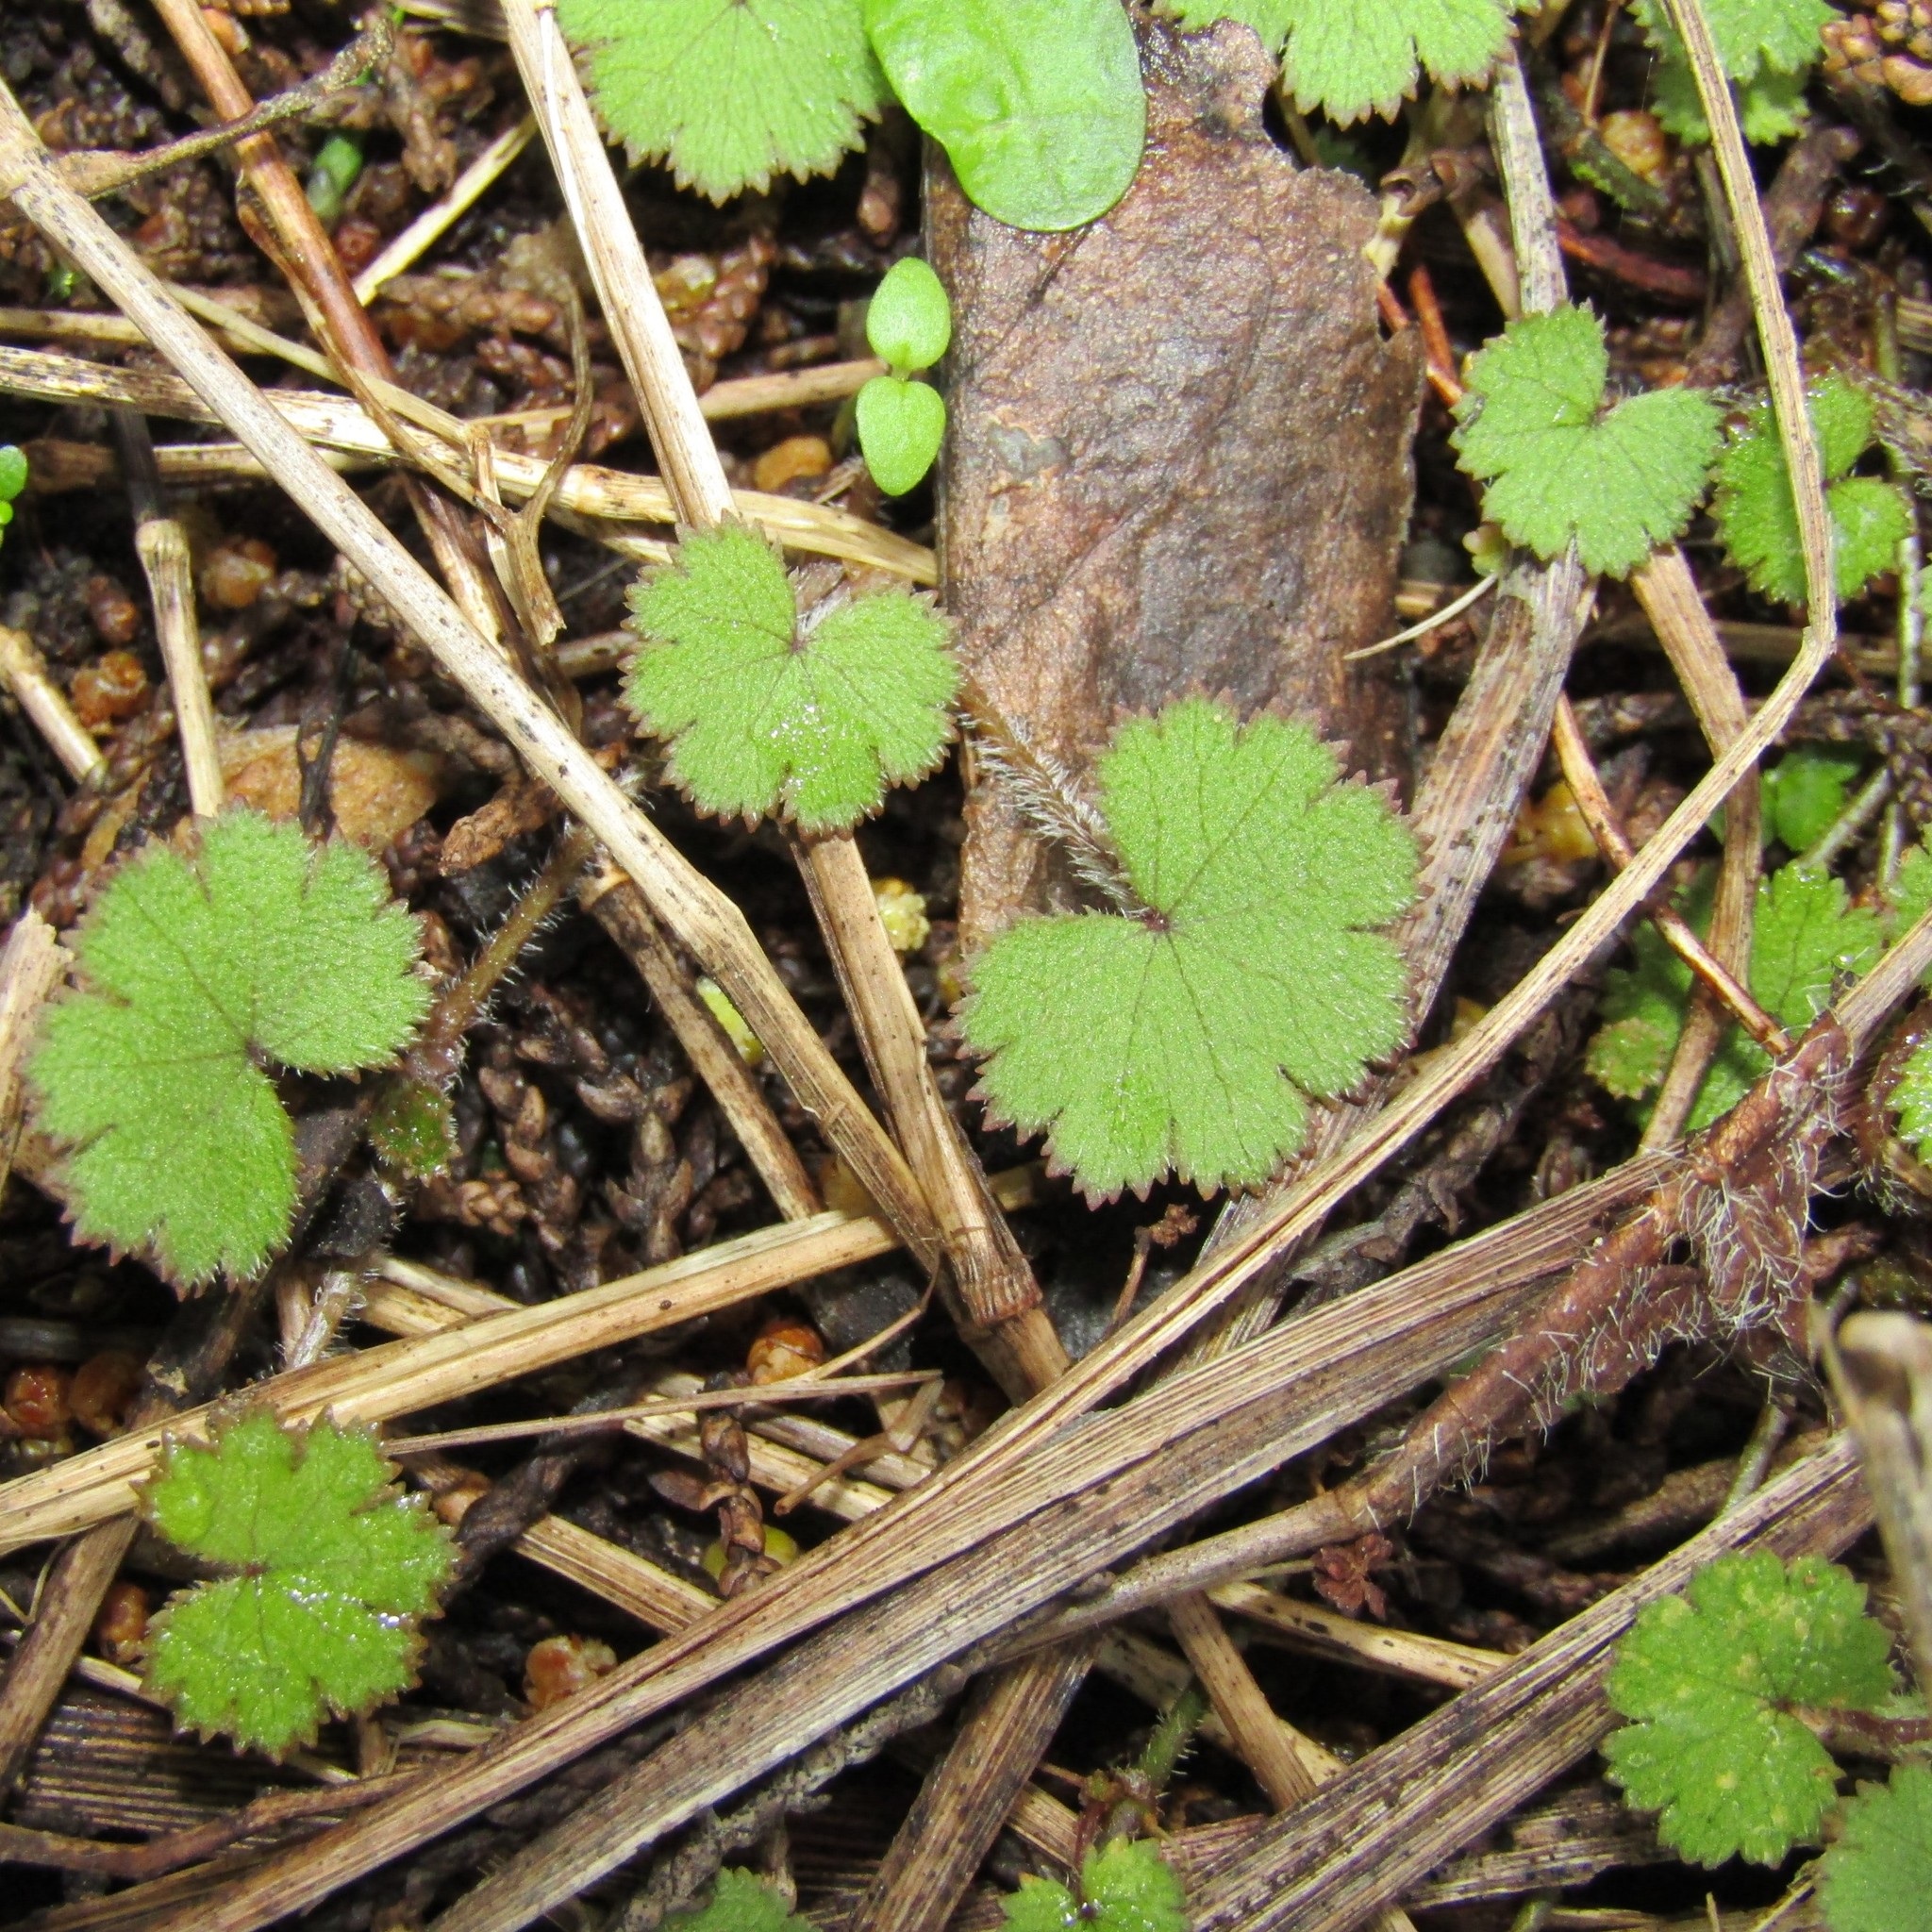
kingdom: Plantae
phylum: Tracheophyta
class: Magnoliopsida
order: Apiales
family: Araliaceae
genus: Hydrocotyle
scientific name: Hydrocotyle moschata
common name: Hairy pennywort
